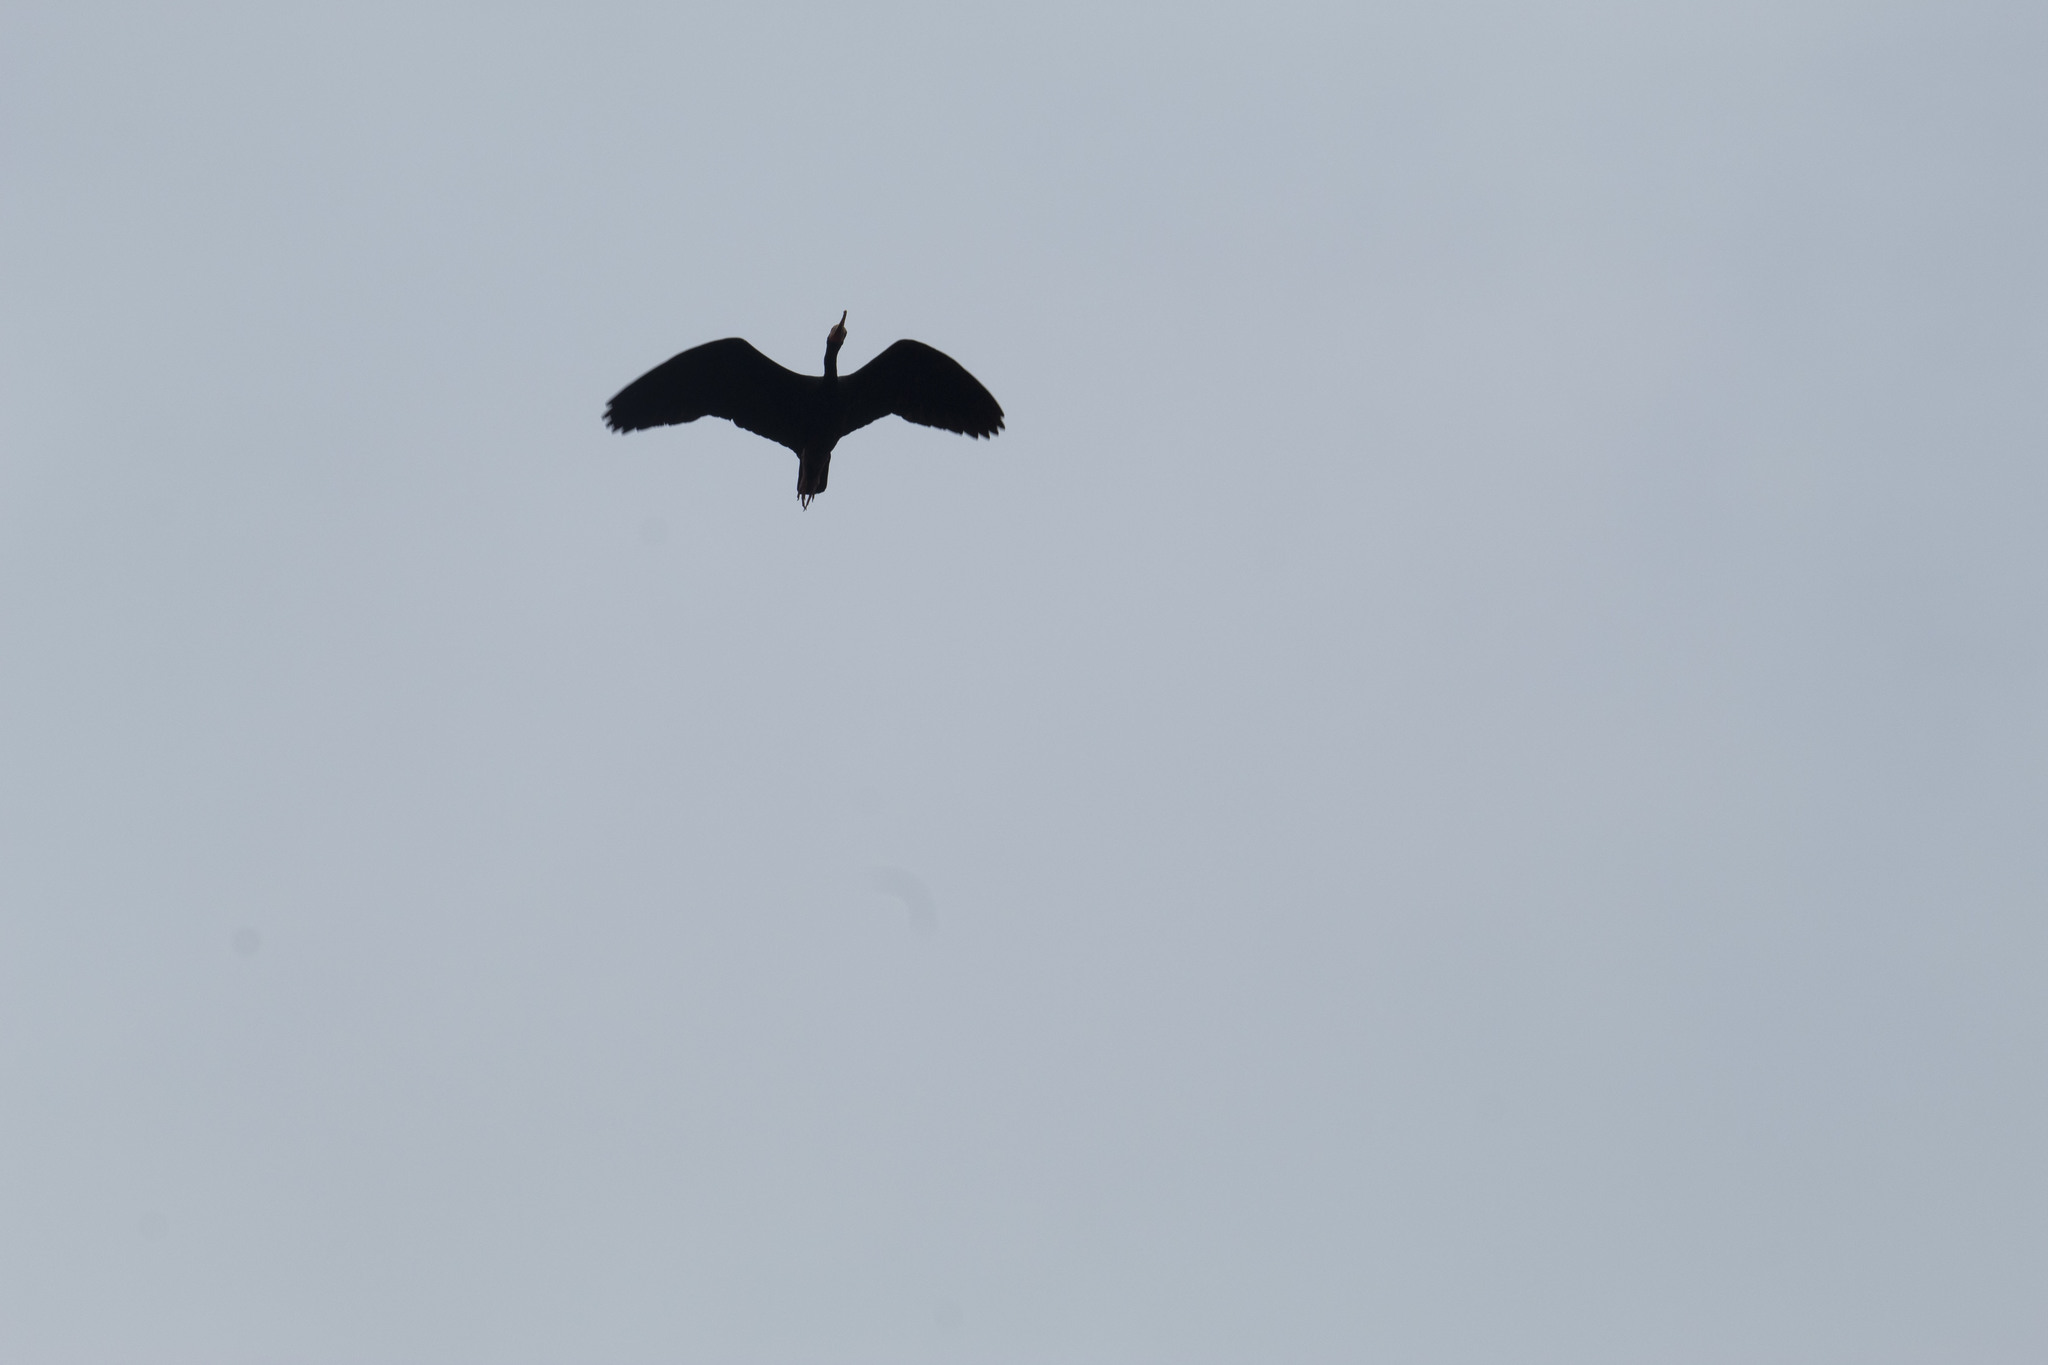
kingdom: Animalia
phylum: Chordata
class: Aves
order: Pelecaniformes
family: Threskiornithidae
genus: Phimosus
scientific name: Phimosus infuscatus
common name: Bare-faced ibis
